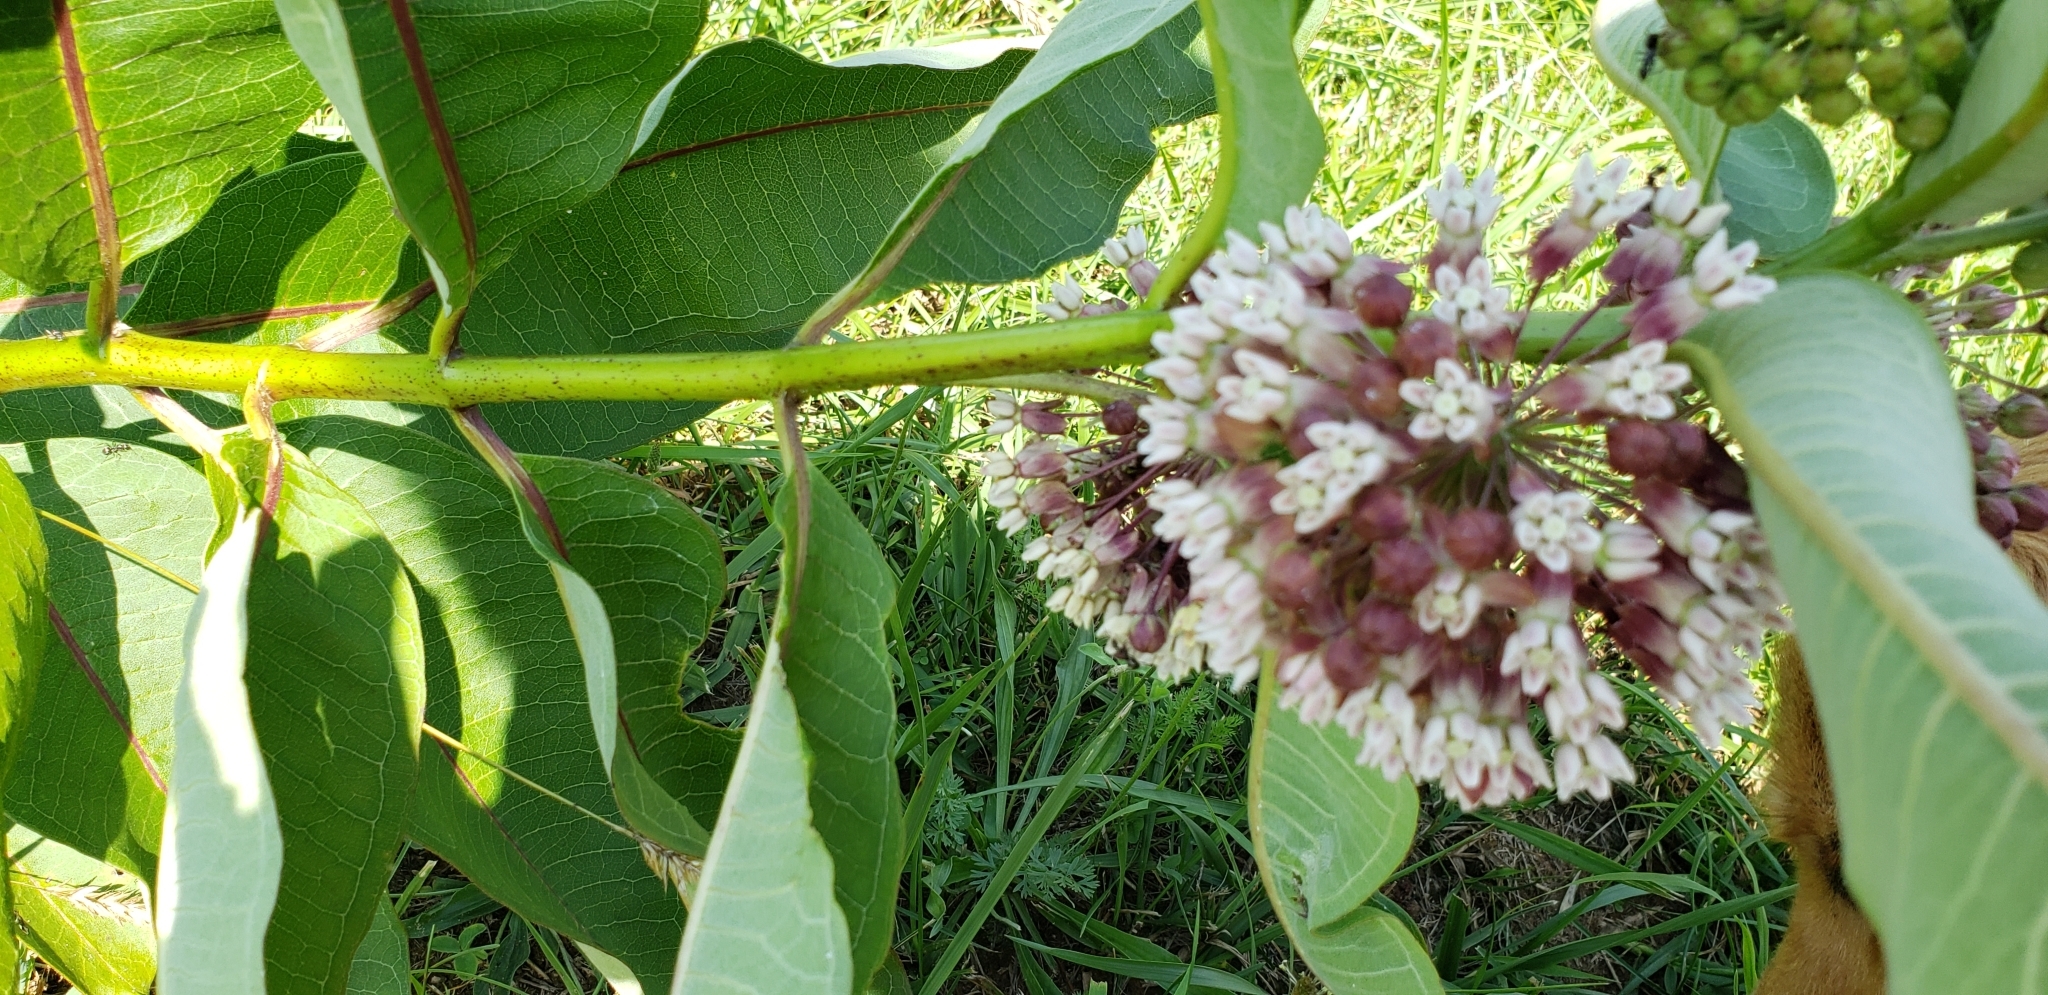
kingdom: Plantae
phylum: Tracheophyta
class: Magnoliopsida
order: Gentianales
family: Apocynaceae
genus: Asclepias
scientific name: Asclepias syriaca
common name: Common milkweed
